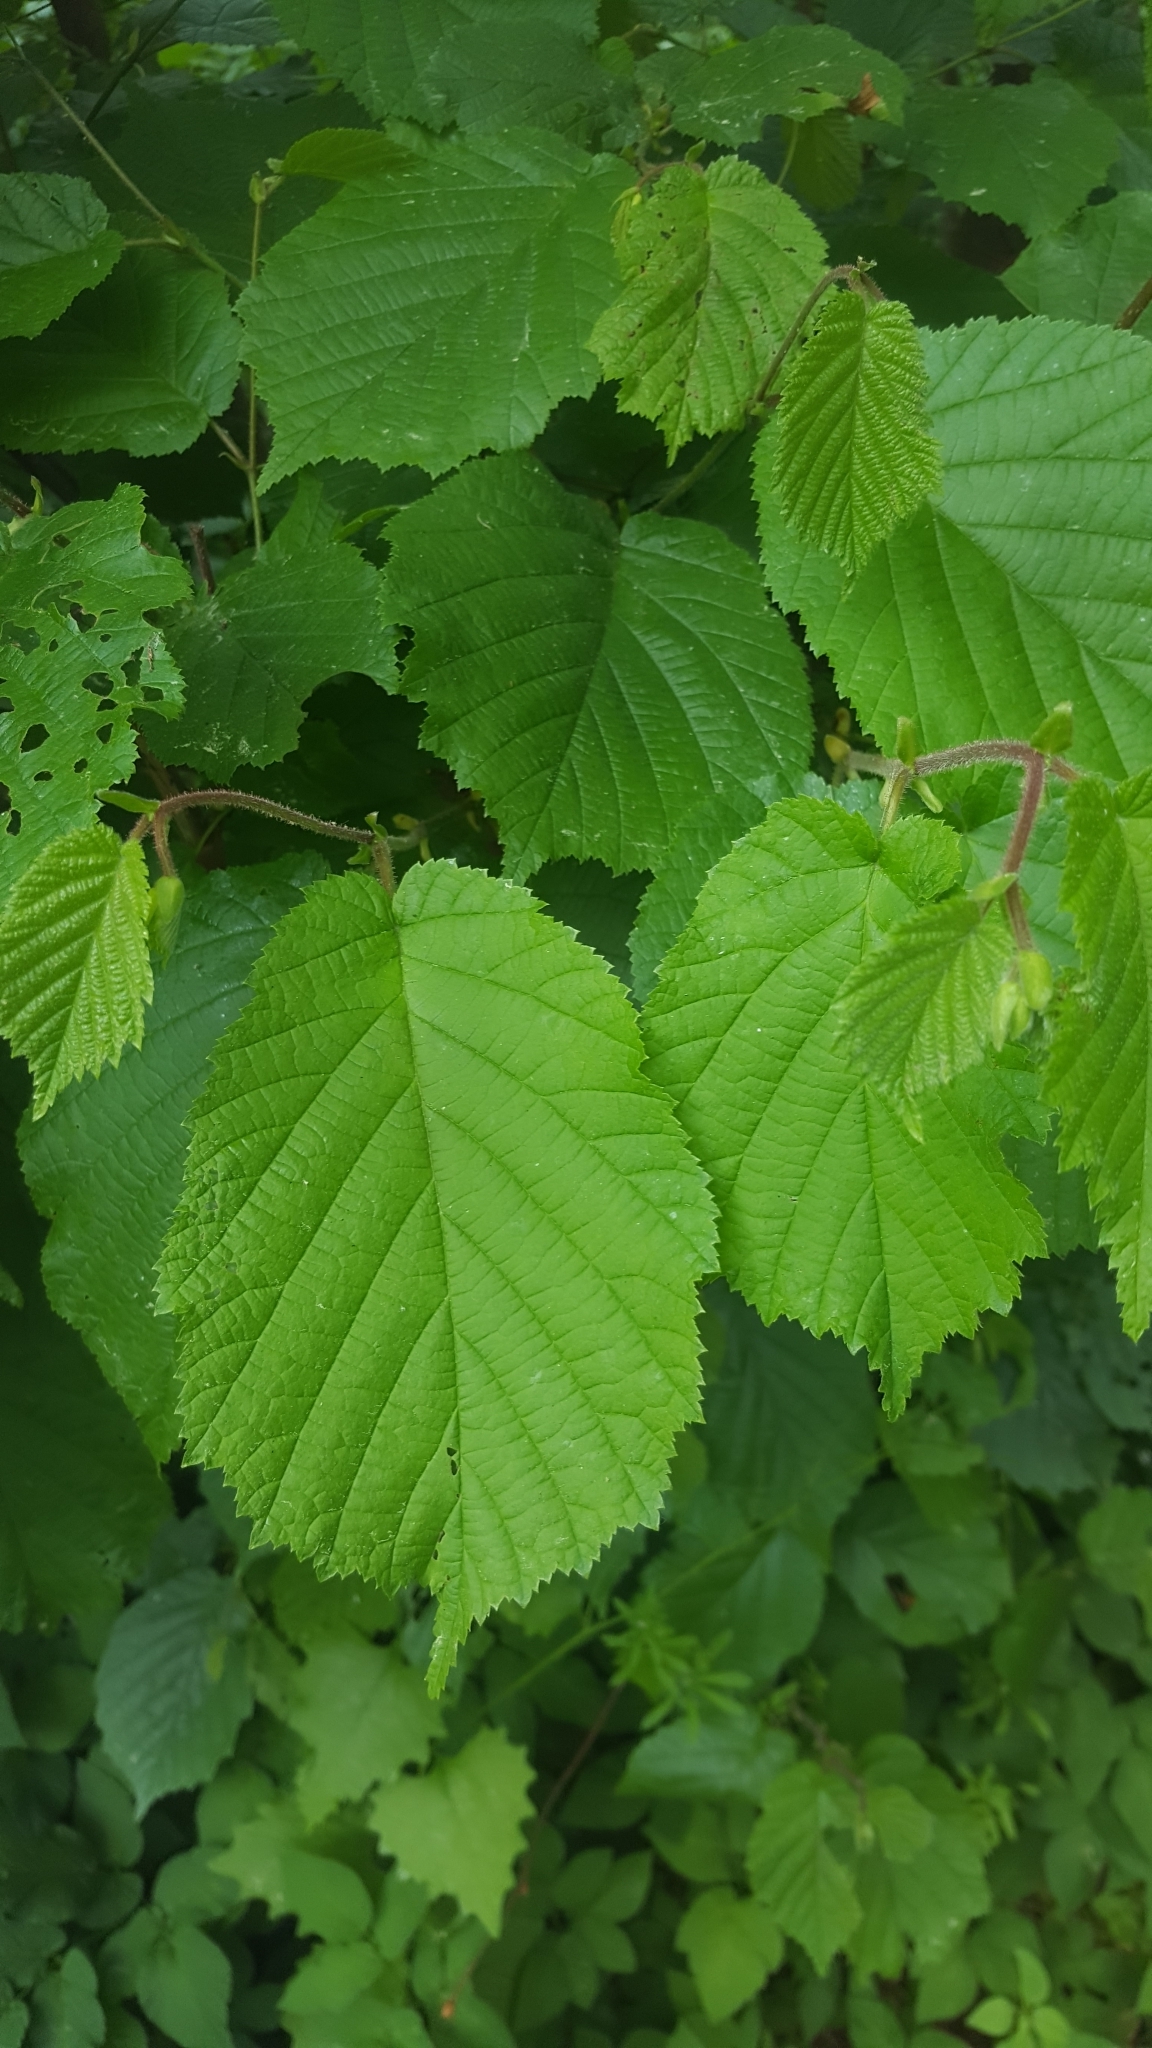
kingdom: Plantae
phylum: Tracheophyta
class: Magnoliopsida
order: Fagales
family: Betulaceae
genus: Corylus
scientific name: Corylus avellana
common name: European hazel
